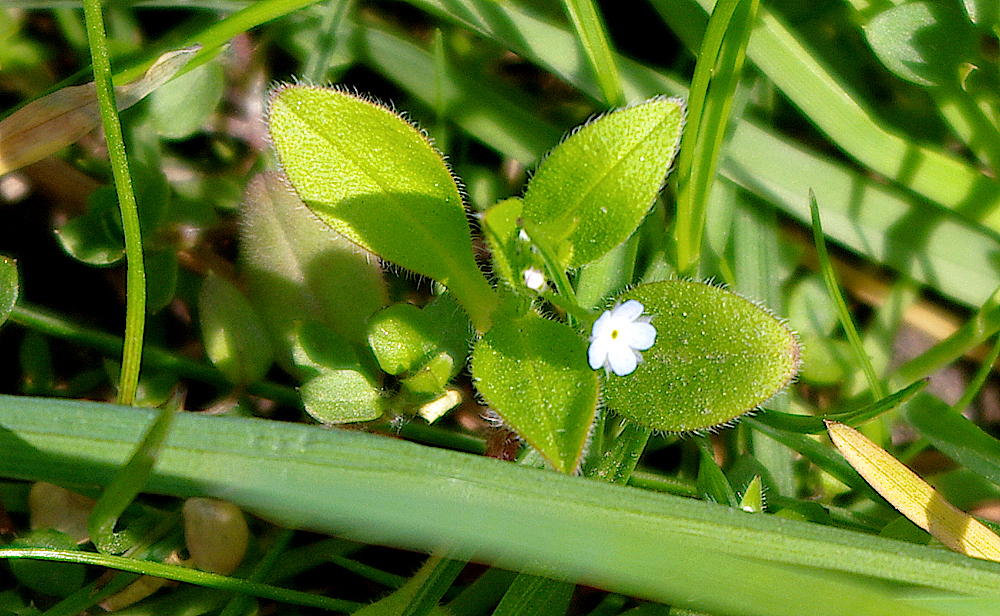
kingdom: Plantae
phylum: Tracheophyta
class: Magnoliopsida
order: Boraginales
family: Boraginaceae
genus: Myosotis
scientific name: Myosotis sparsiflora
